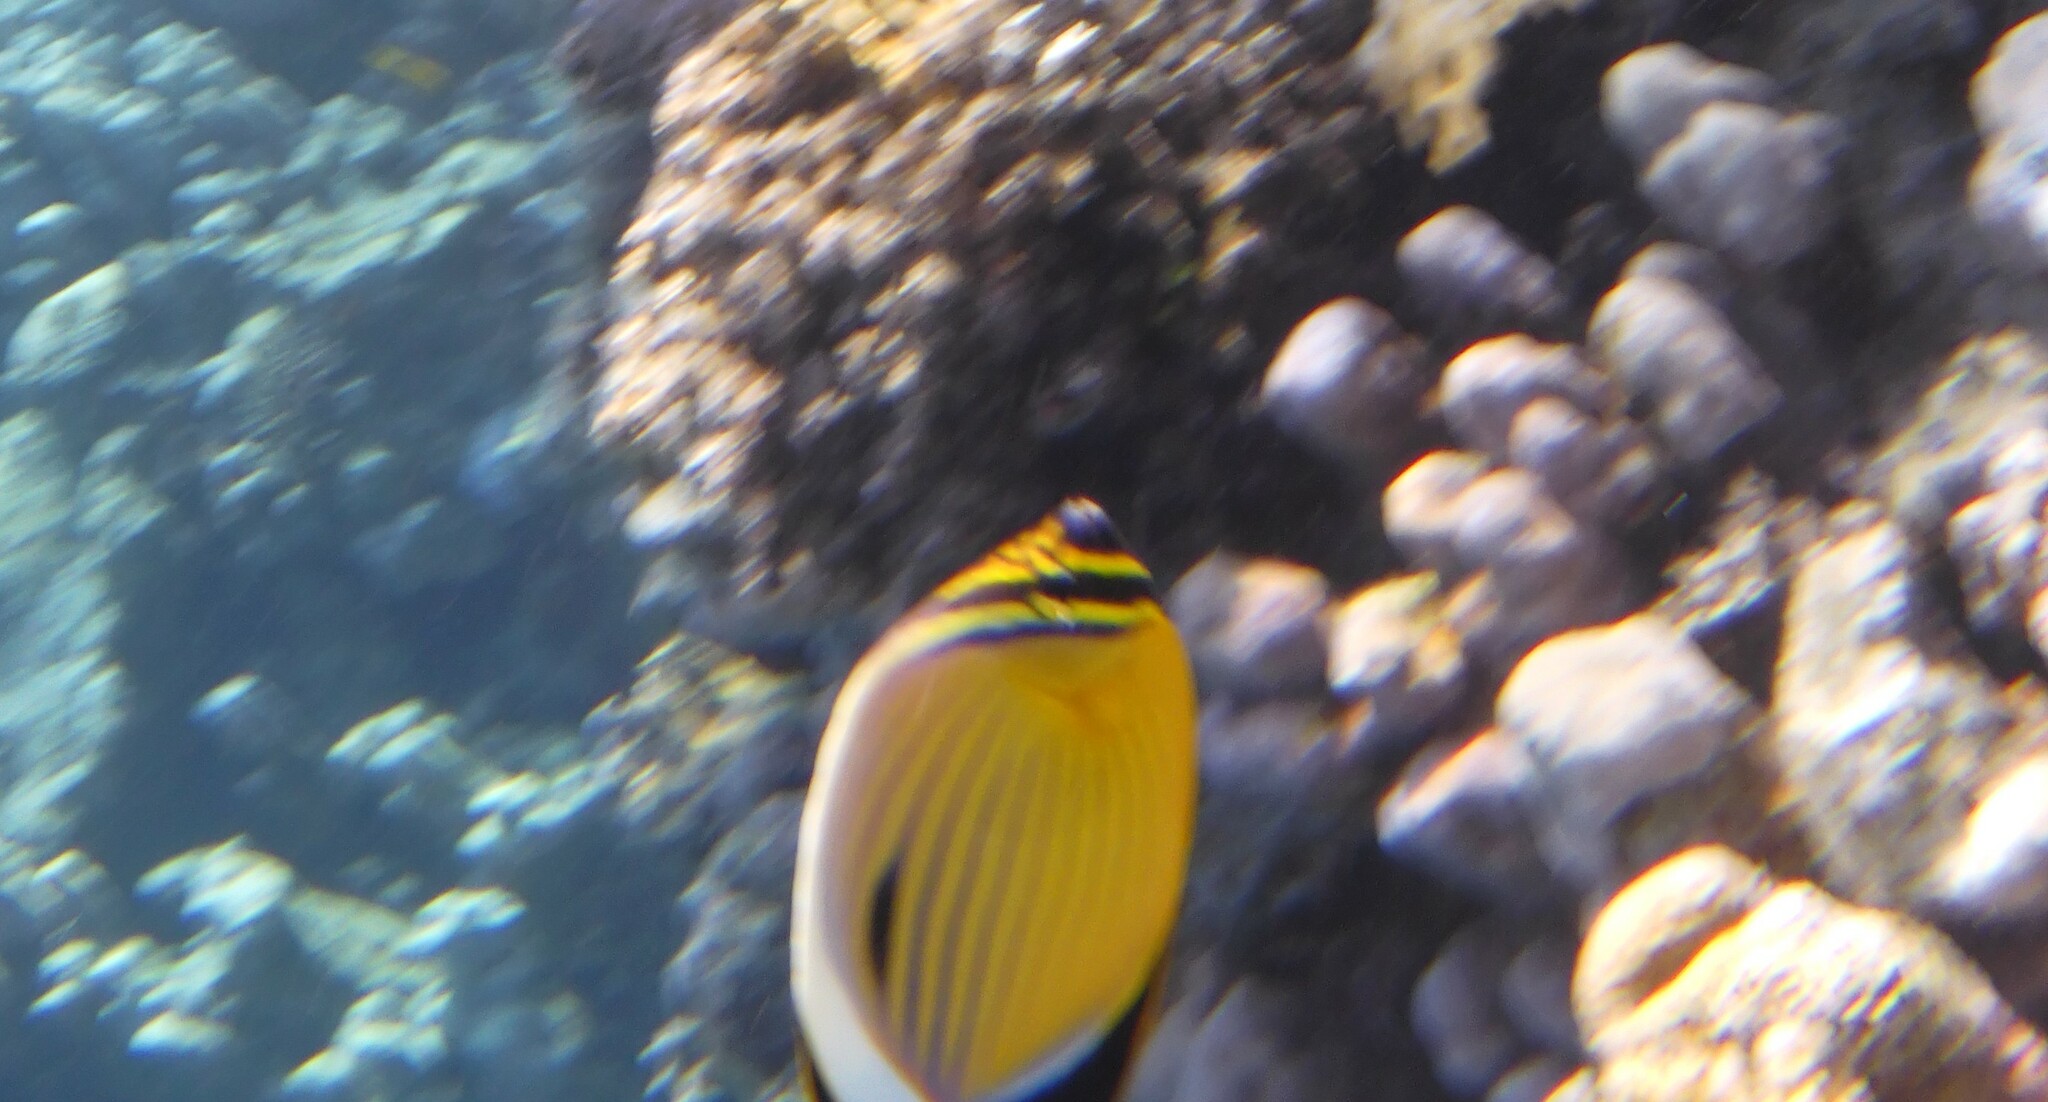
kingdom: Animalia
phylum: Chordata
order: Perciformes
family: Chaetodontidae
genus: Chaetodon
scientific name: Chaetodon austriacus
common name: Exquisite butterflyfish
